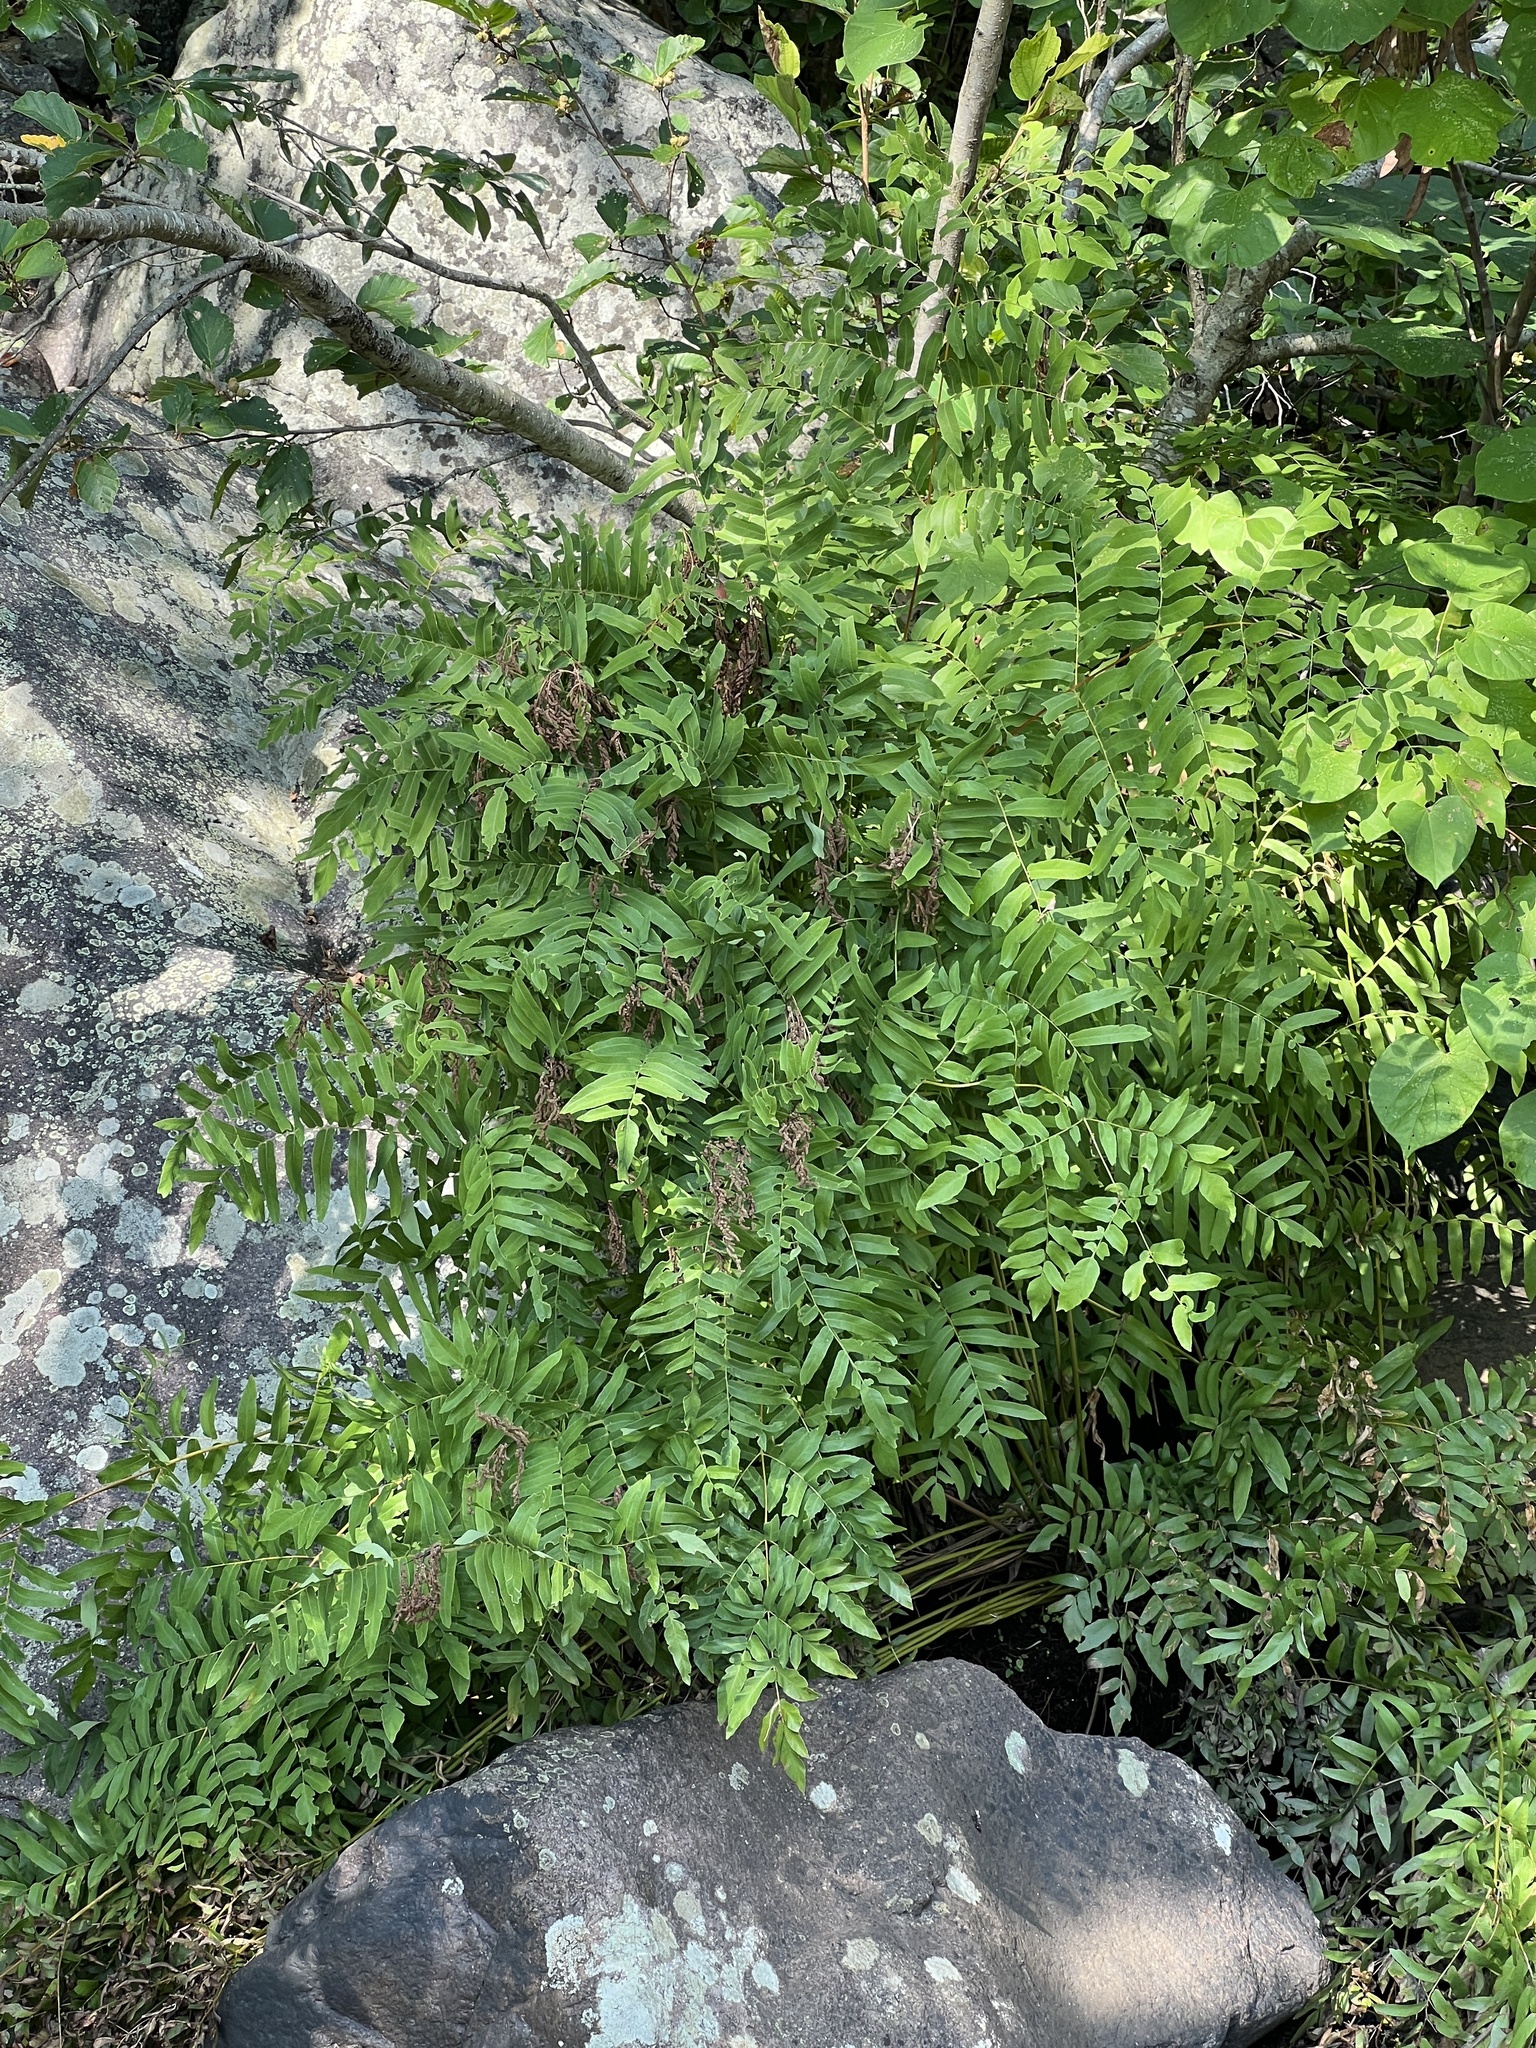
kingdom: Plantae
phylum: Tracheophyta
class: Polypodiopsida
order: Osmundales
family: Osmundaceae
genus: Osmunda
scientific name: Osmunda spectabilis
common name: American royal fern
